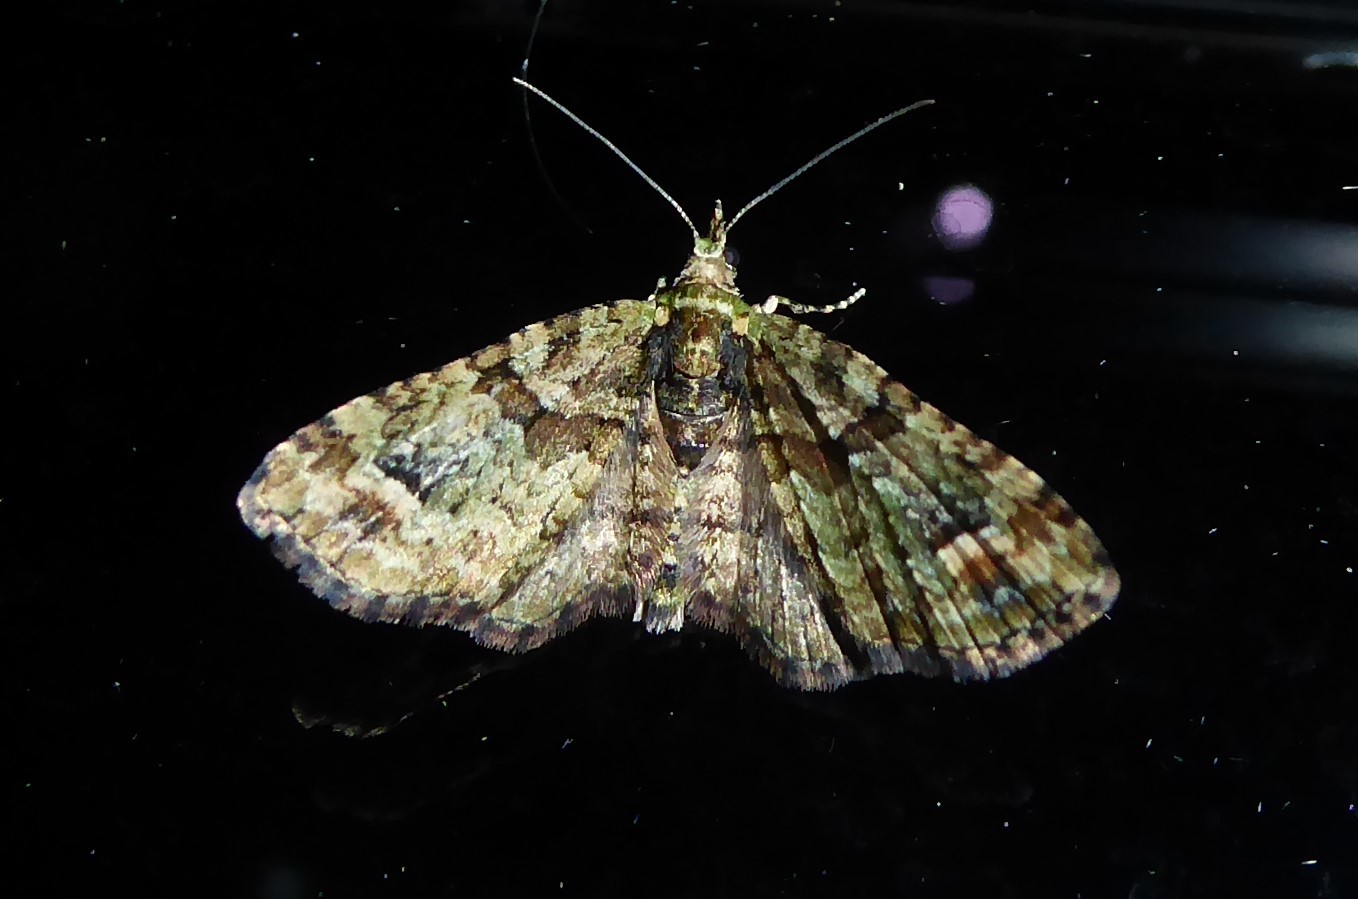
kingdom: Animalia
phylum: Arthropoda
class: Insecta
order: Lepidoptera
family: Geometridae
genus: Idaea
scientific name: Idaea mutanda
